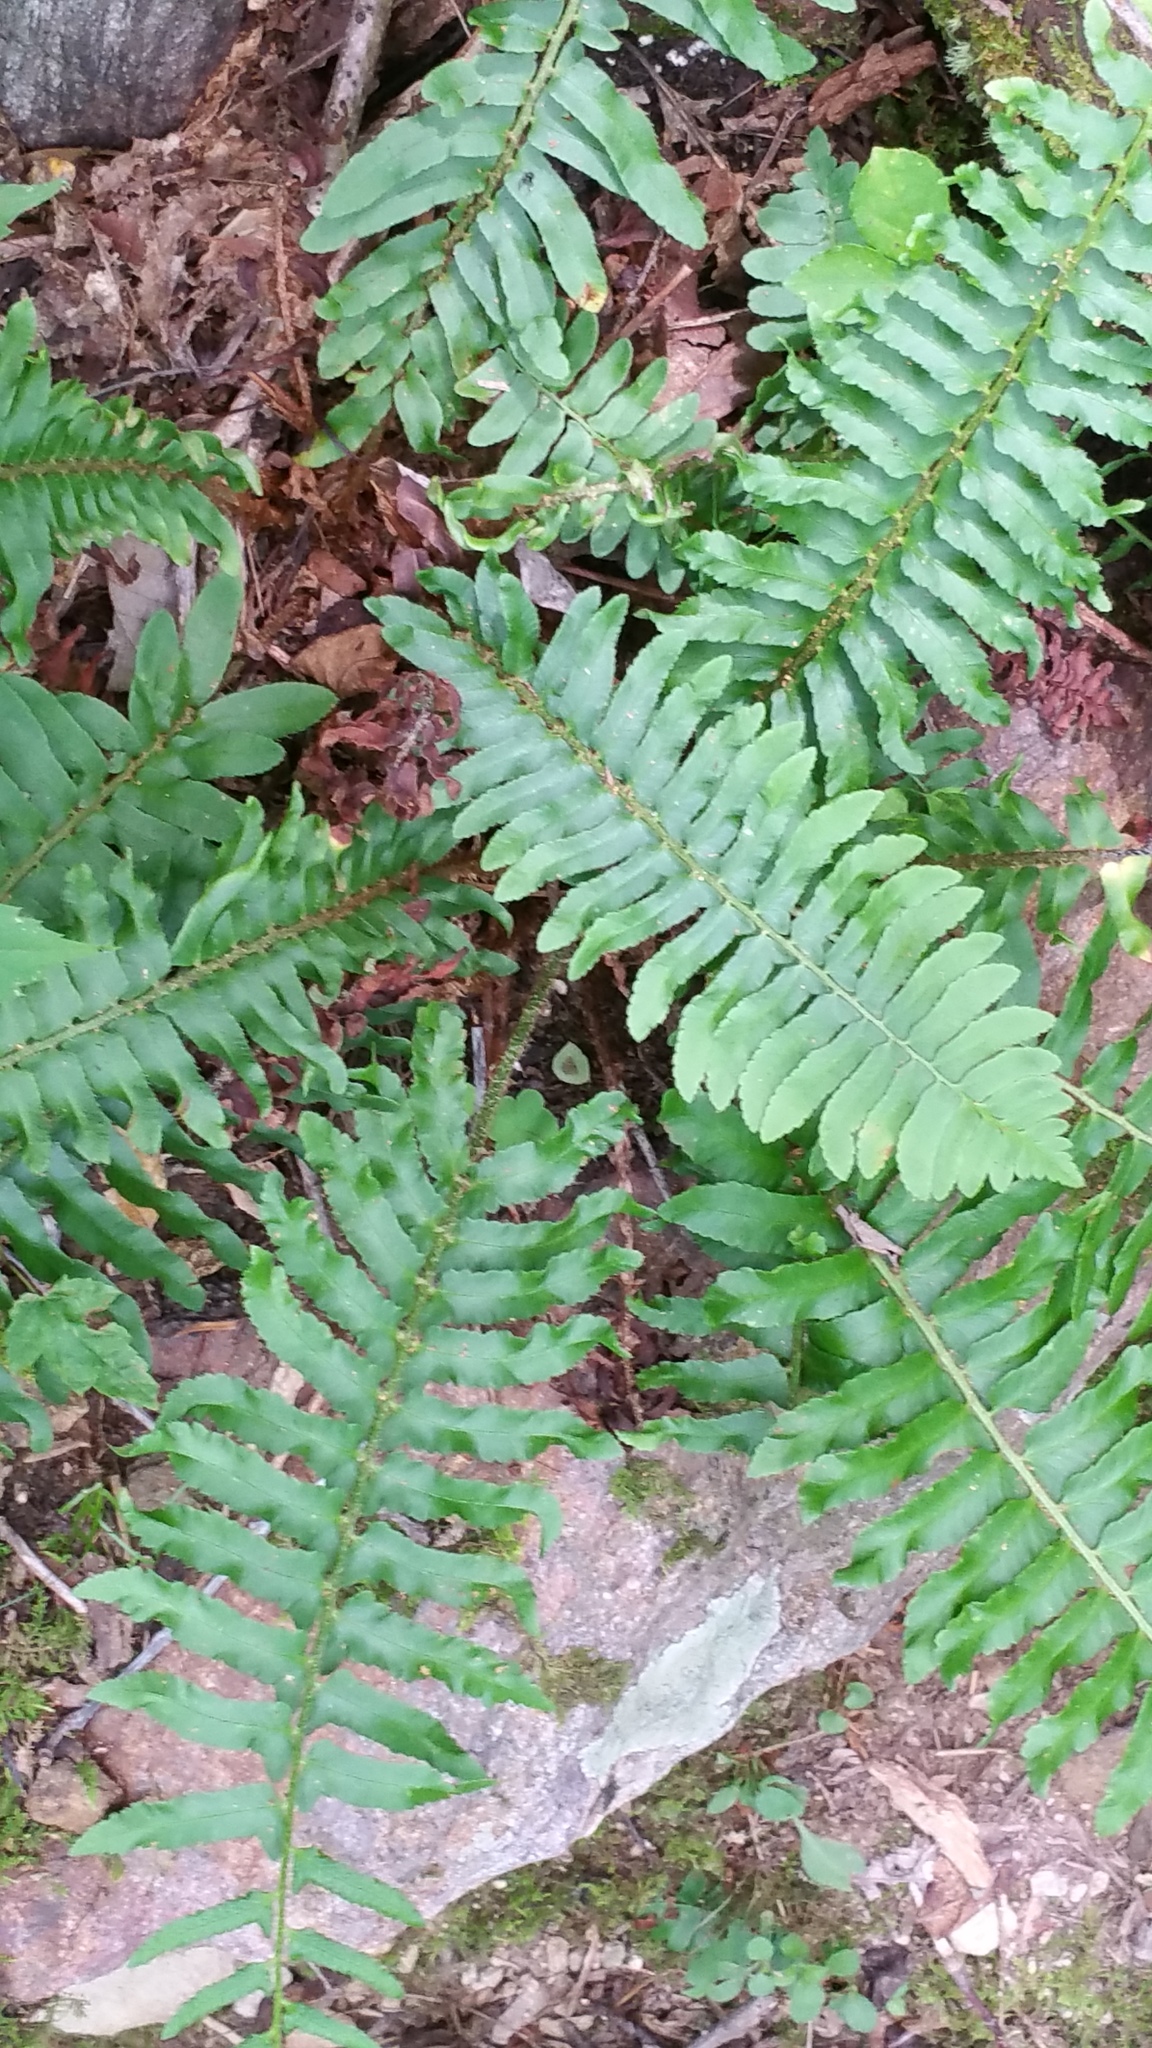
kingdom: Plantae
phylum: Tracheophyta
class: Polypodiopsida
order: Polypodiales
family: Dryopteridaceae
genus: Polystichum
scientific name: Polystichum acrostichoides
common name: Christmas fern
